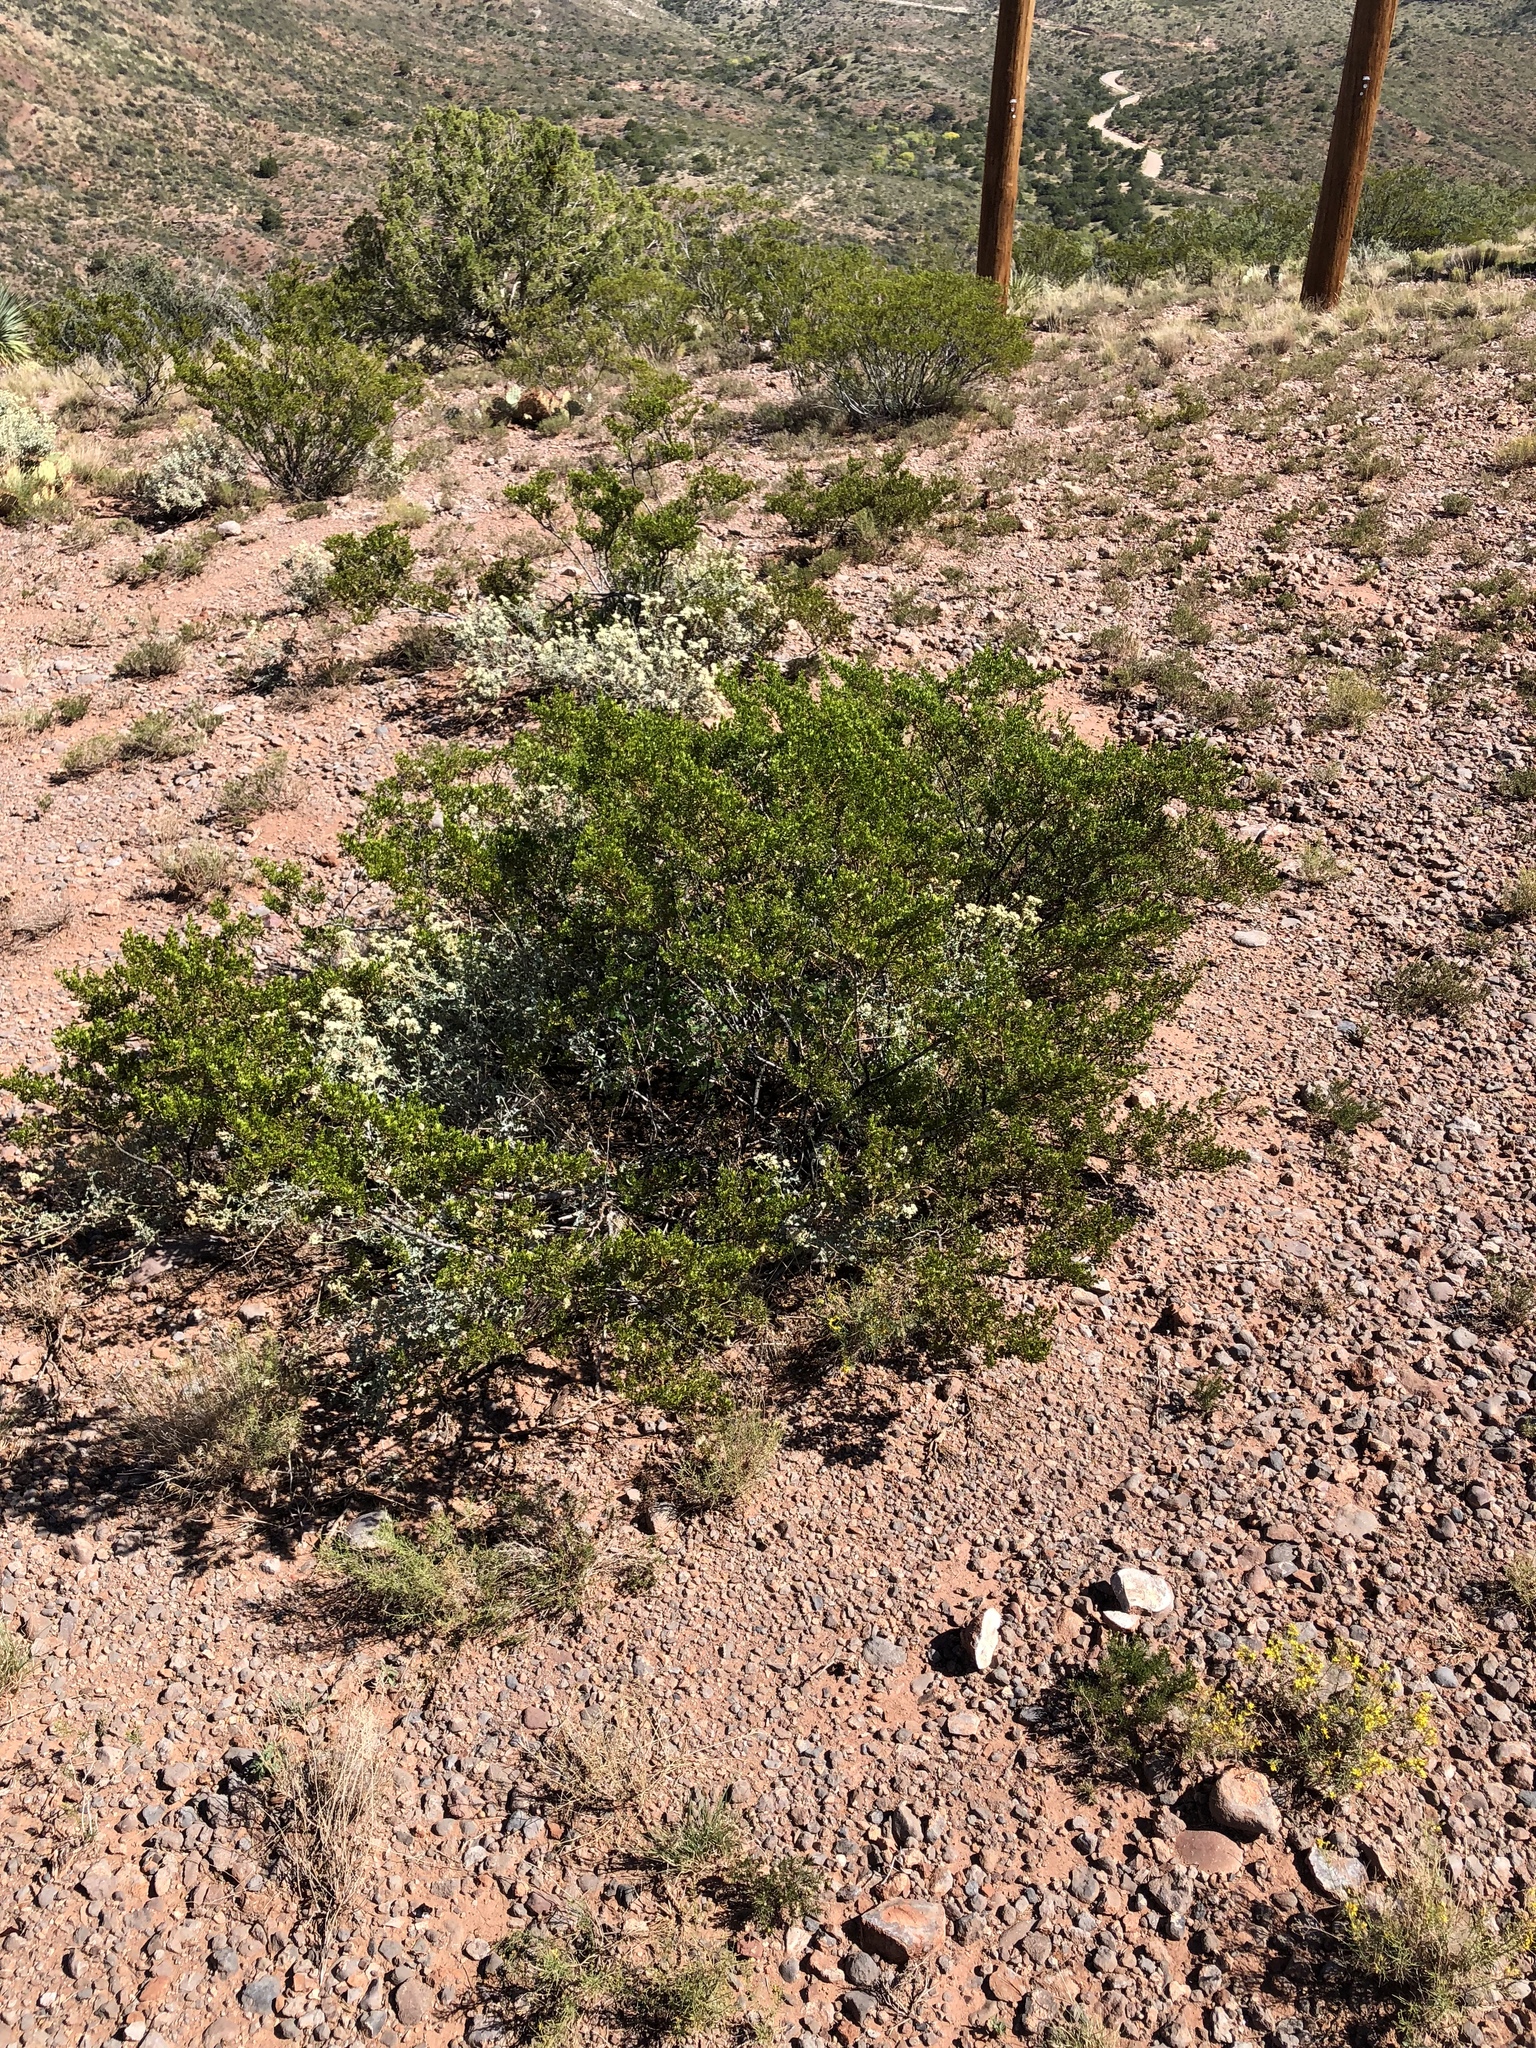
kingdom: Plantae
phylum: Tracheophyta
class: Magnoliopsida
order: Zygophyllales
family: Zygophyllaceae
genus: Larrea
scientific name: Larrea tridentata
